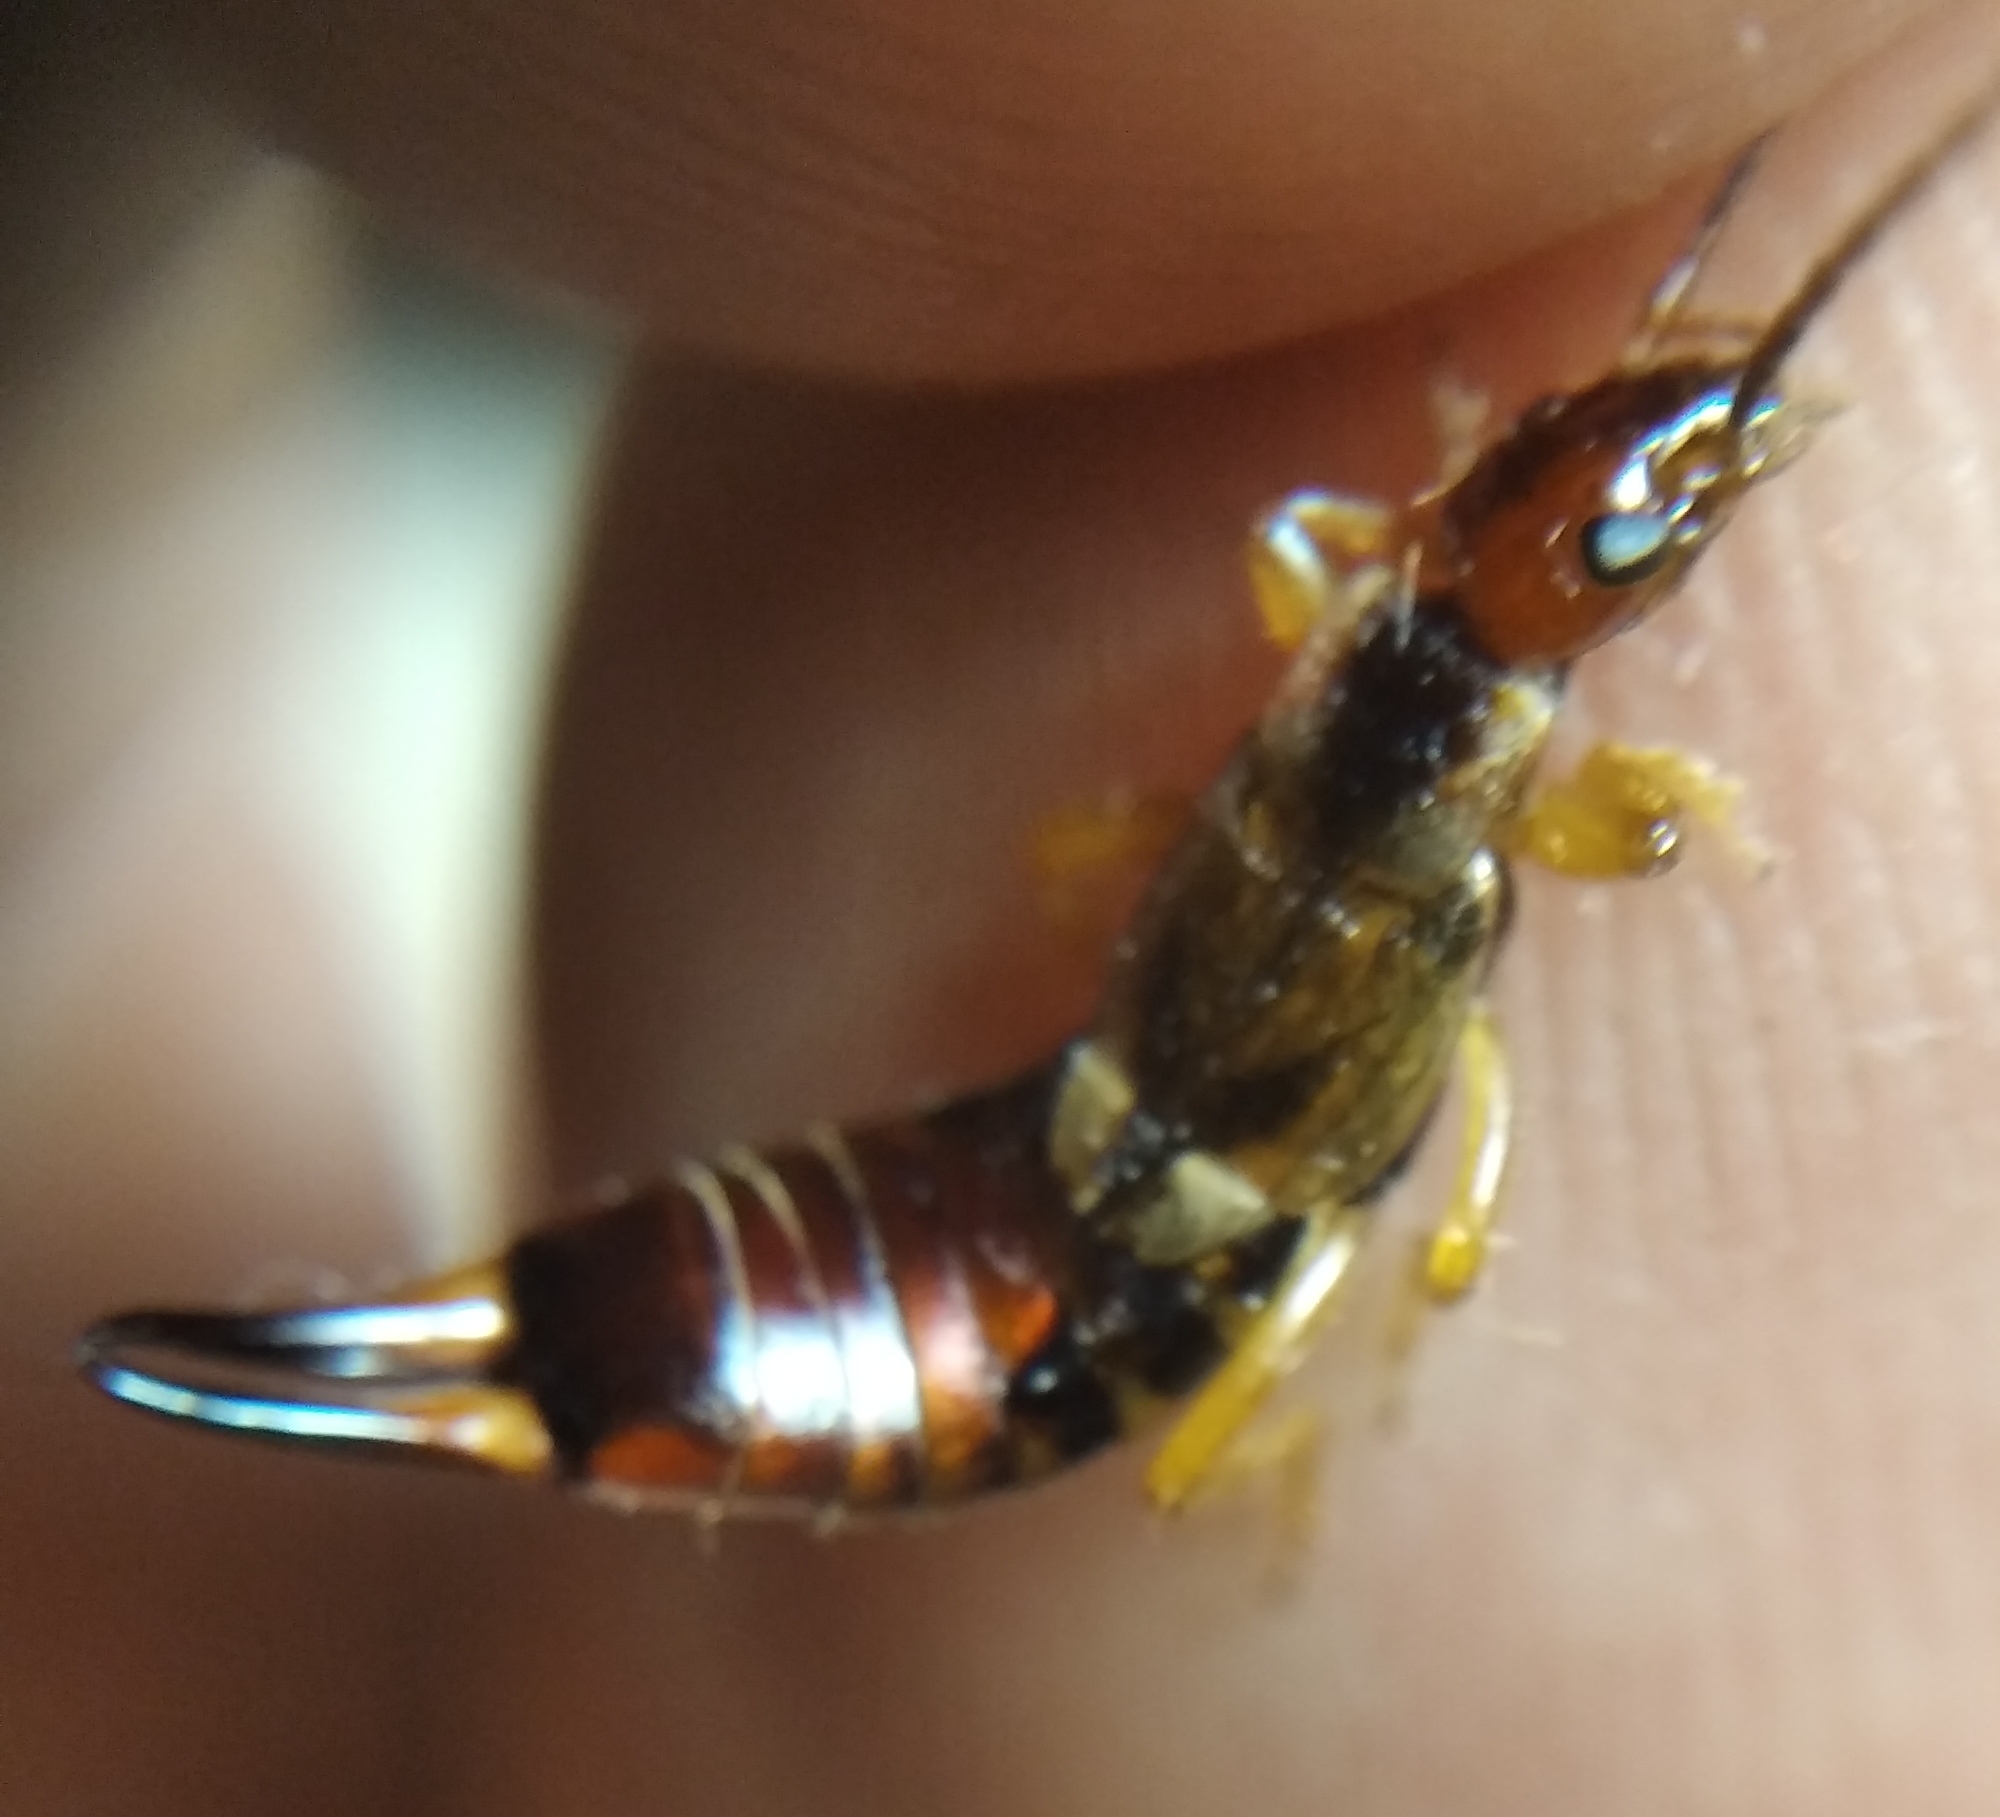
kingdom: Animalia
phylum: Arthropoda
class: Insecta
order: Dermaptera
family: Forficulidae
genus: Forficula
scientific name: Forficula
